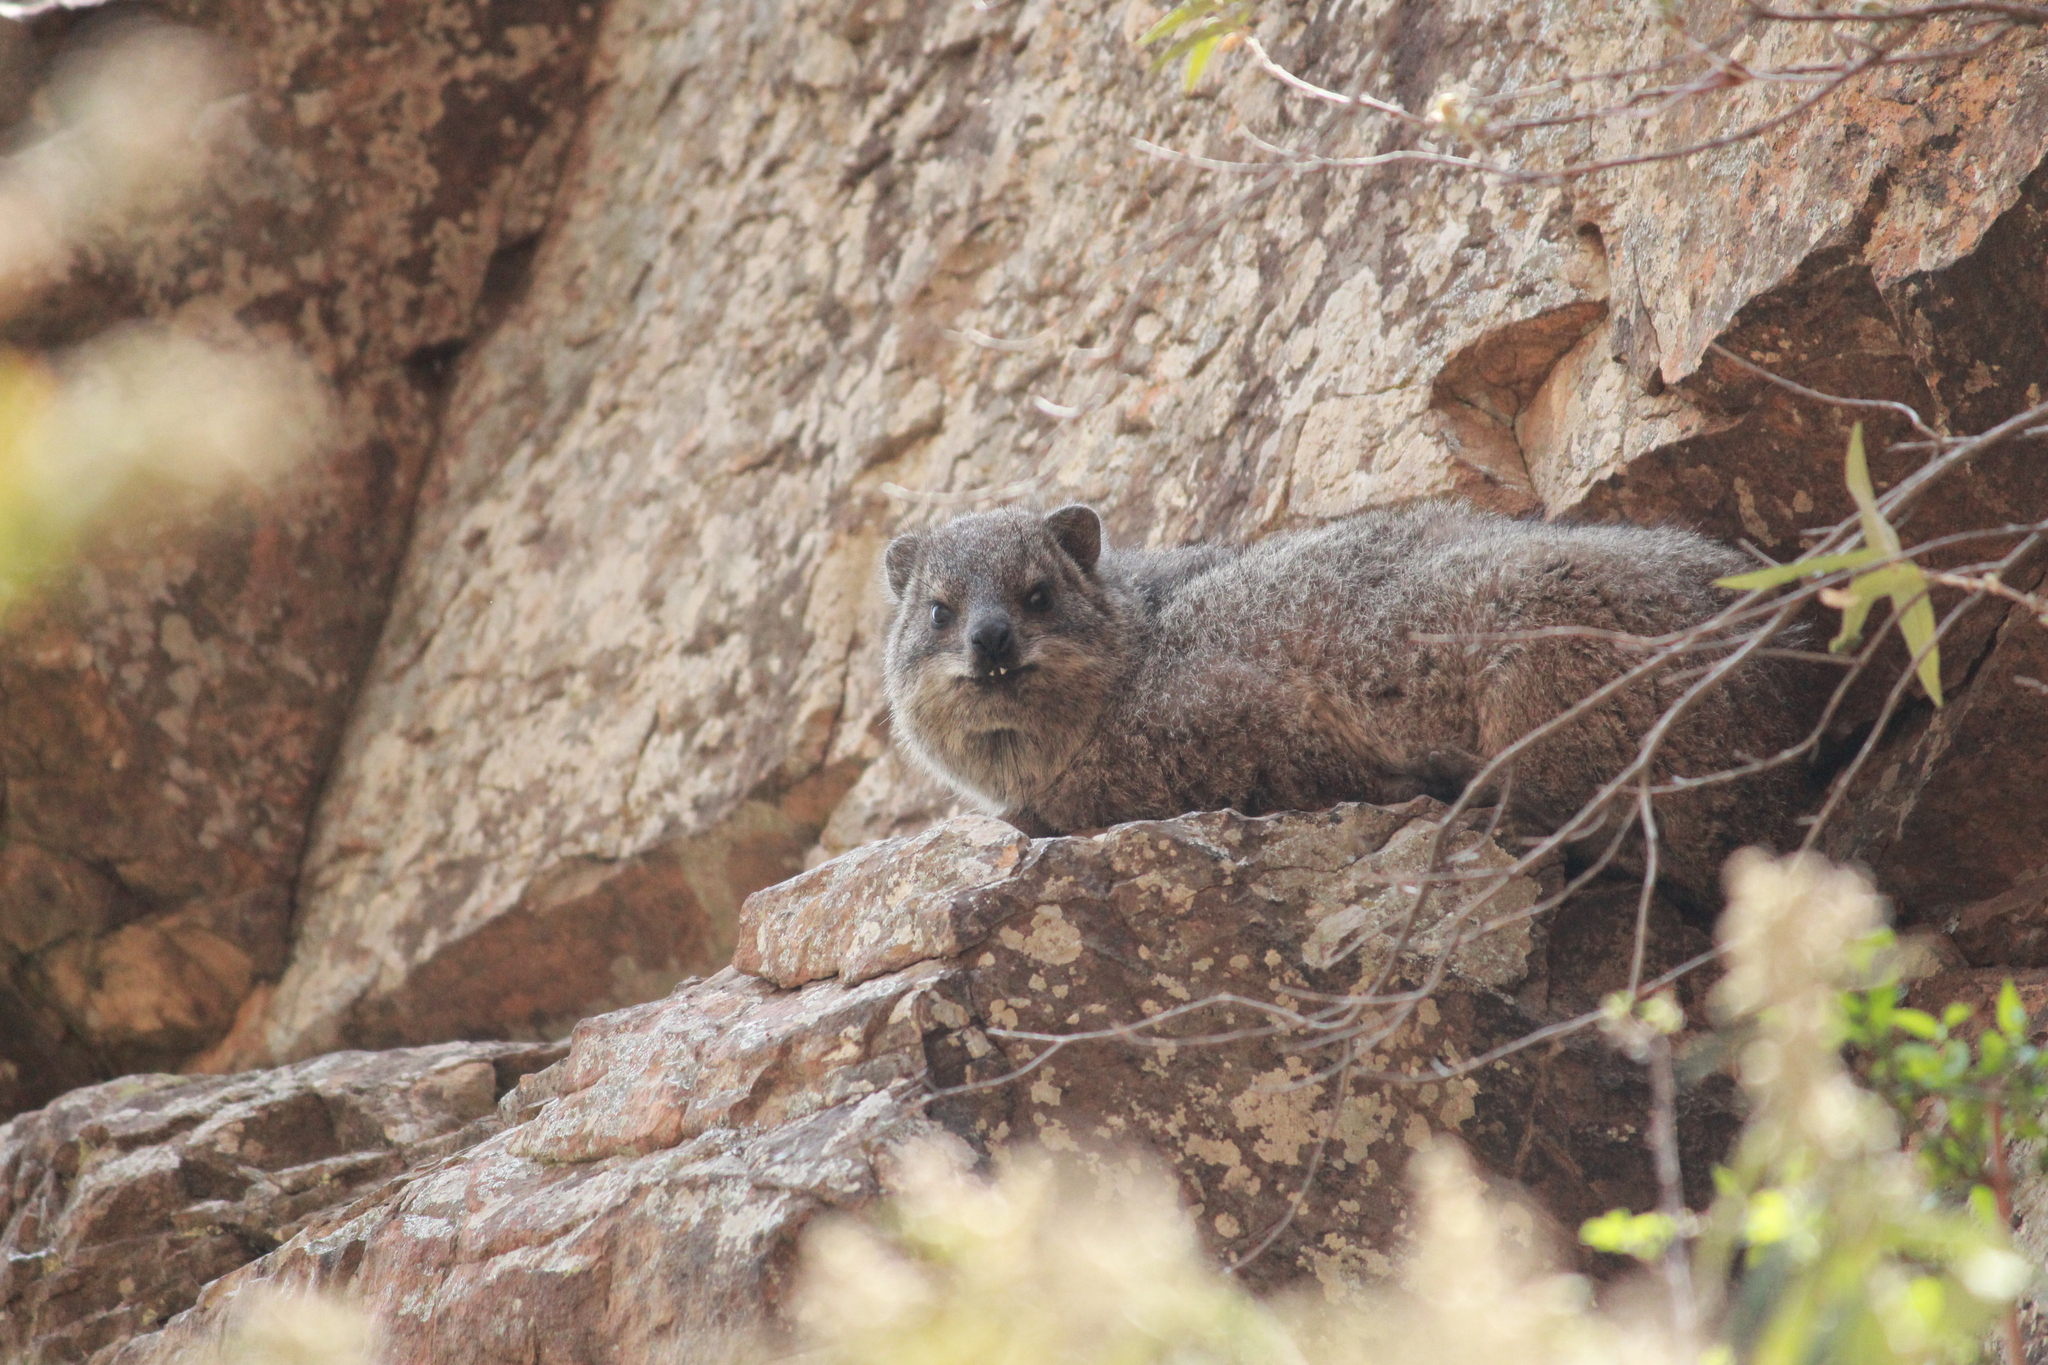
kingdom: Animalia
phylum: Chordata
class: Mammalia
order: Hyracoidea
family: Procaviidae
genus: Procavia
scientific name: Procavia capensis
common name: Rock hyrax
